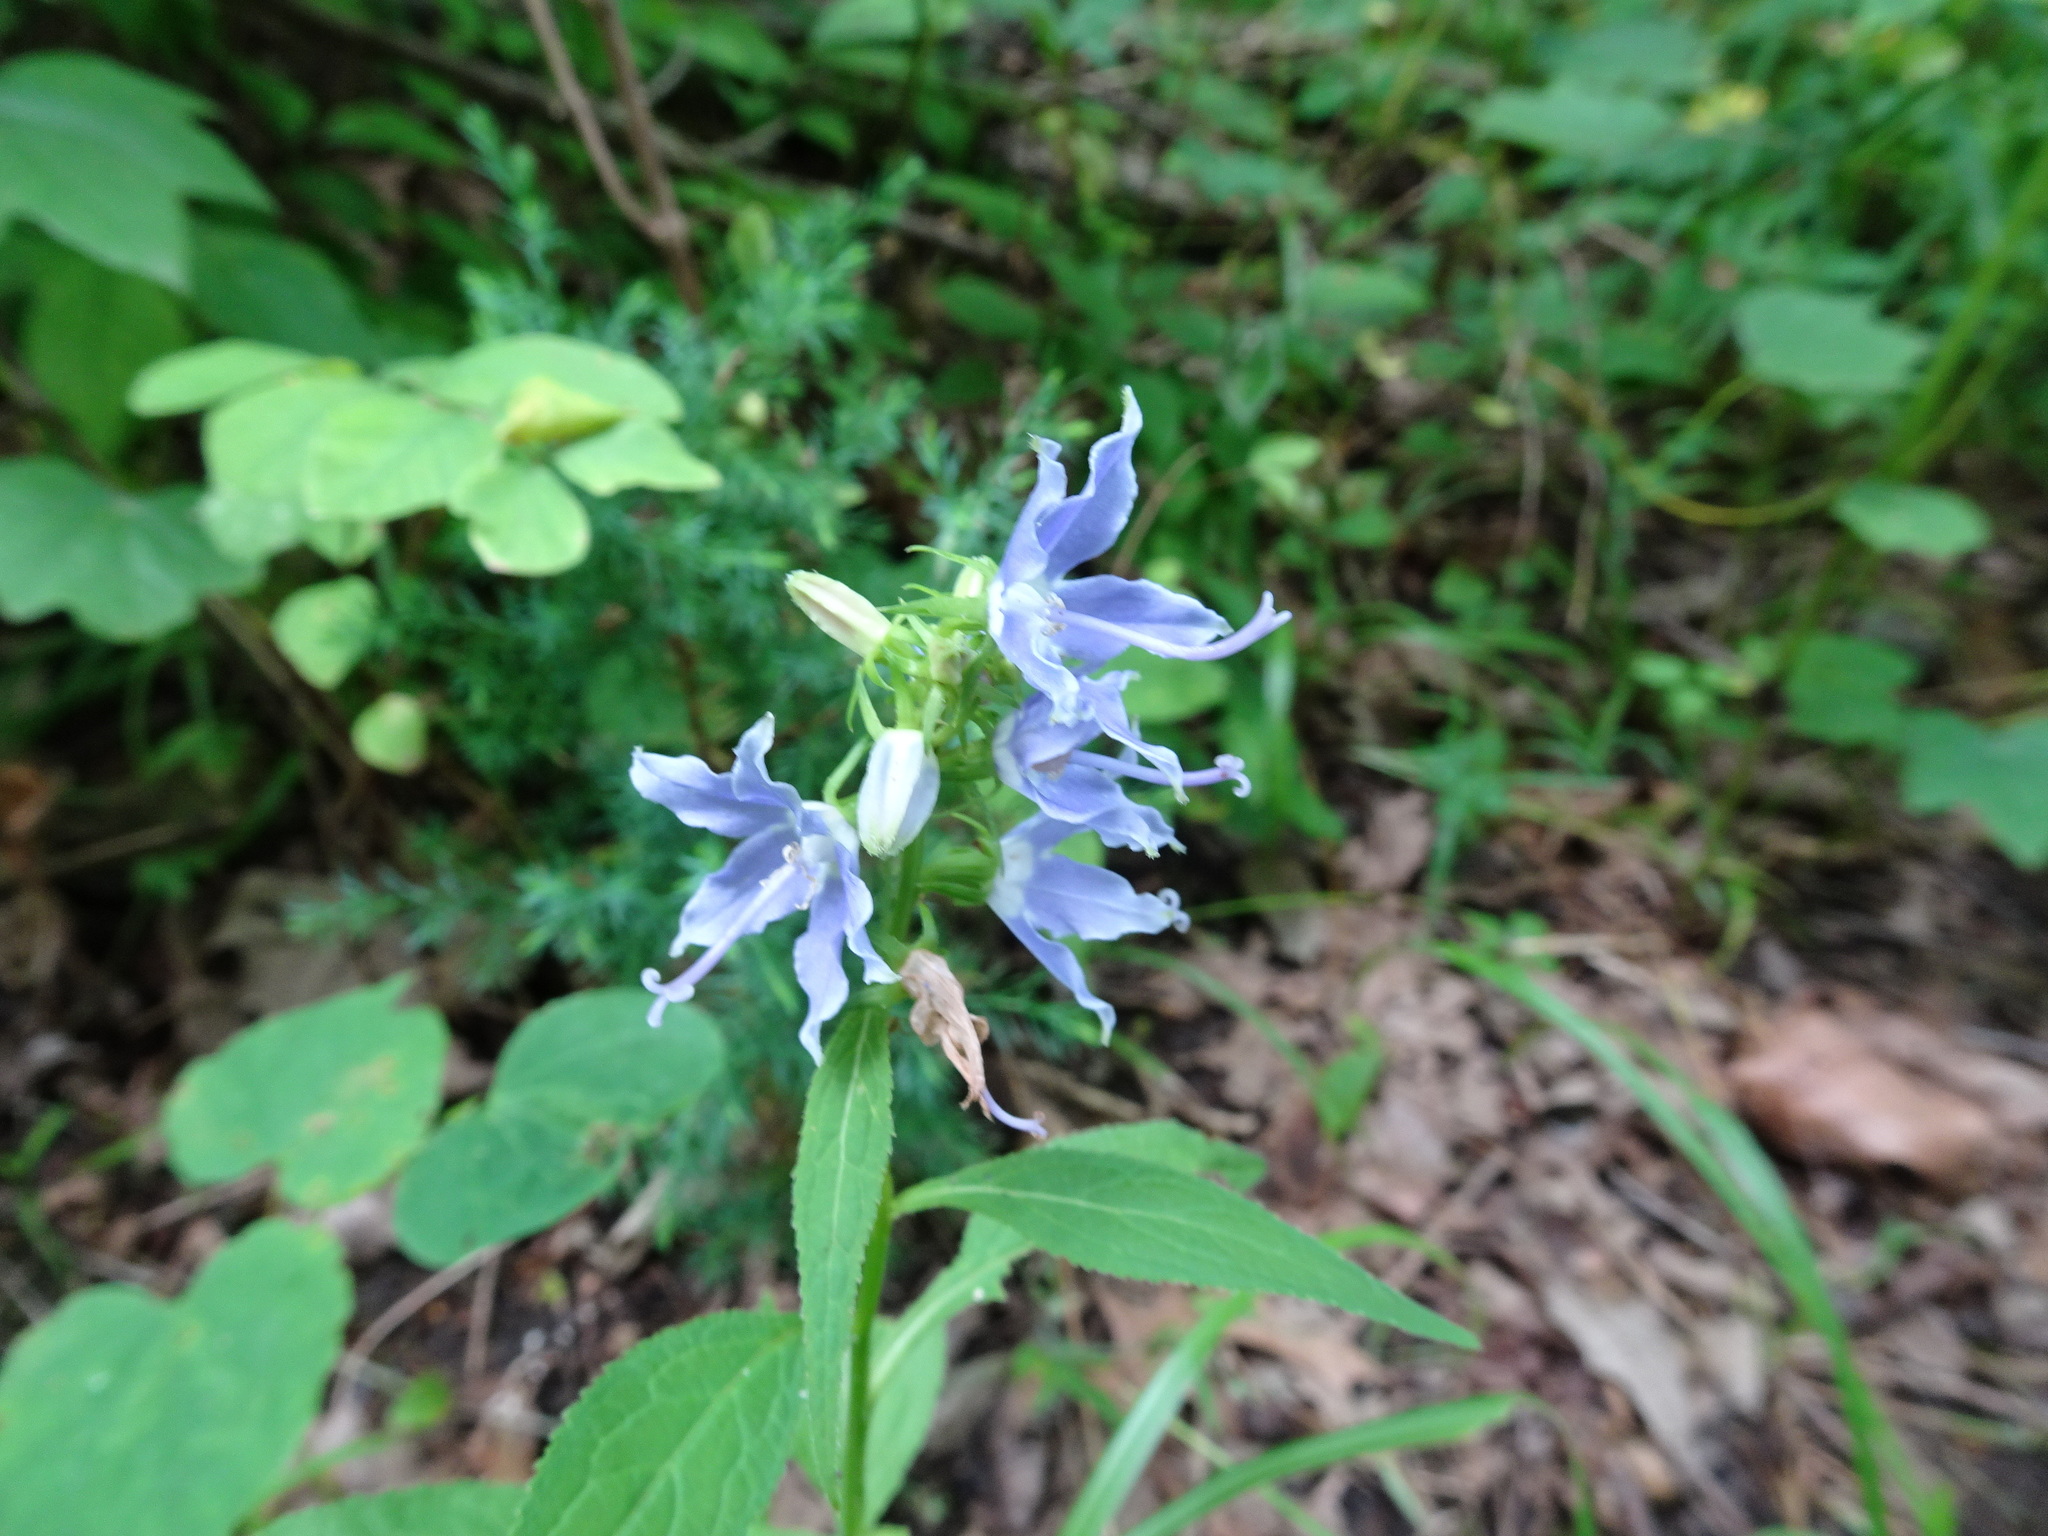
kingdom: Plantae
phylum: Tracheophyta
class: Magnoliopsida
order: Asterales
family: Campanulaceae
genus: Campanulastrum
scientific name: Campanulastrum americanum
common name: American bellflower
